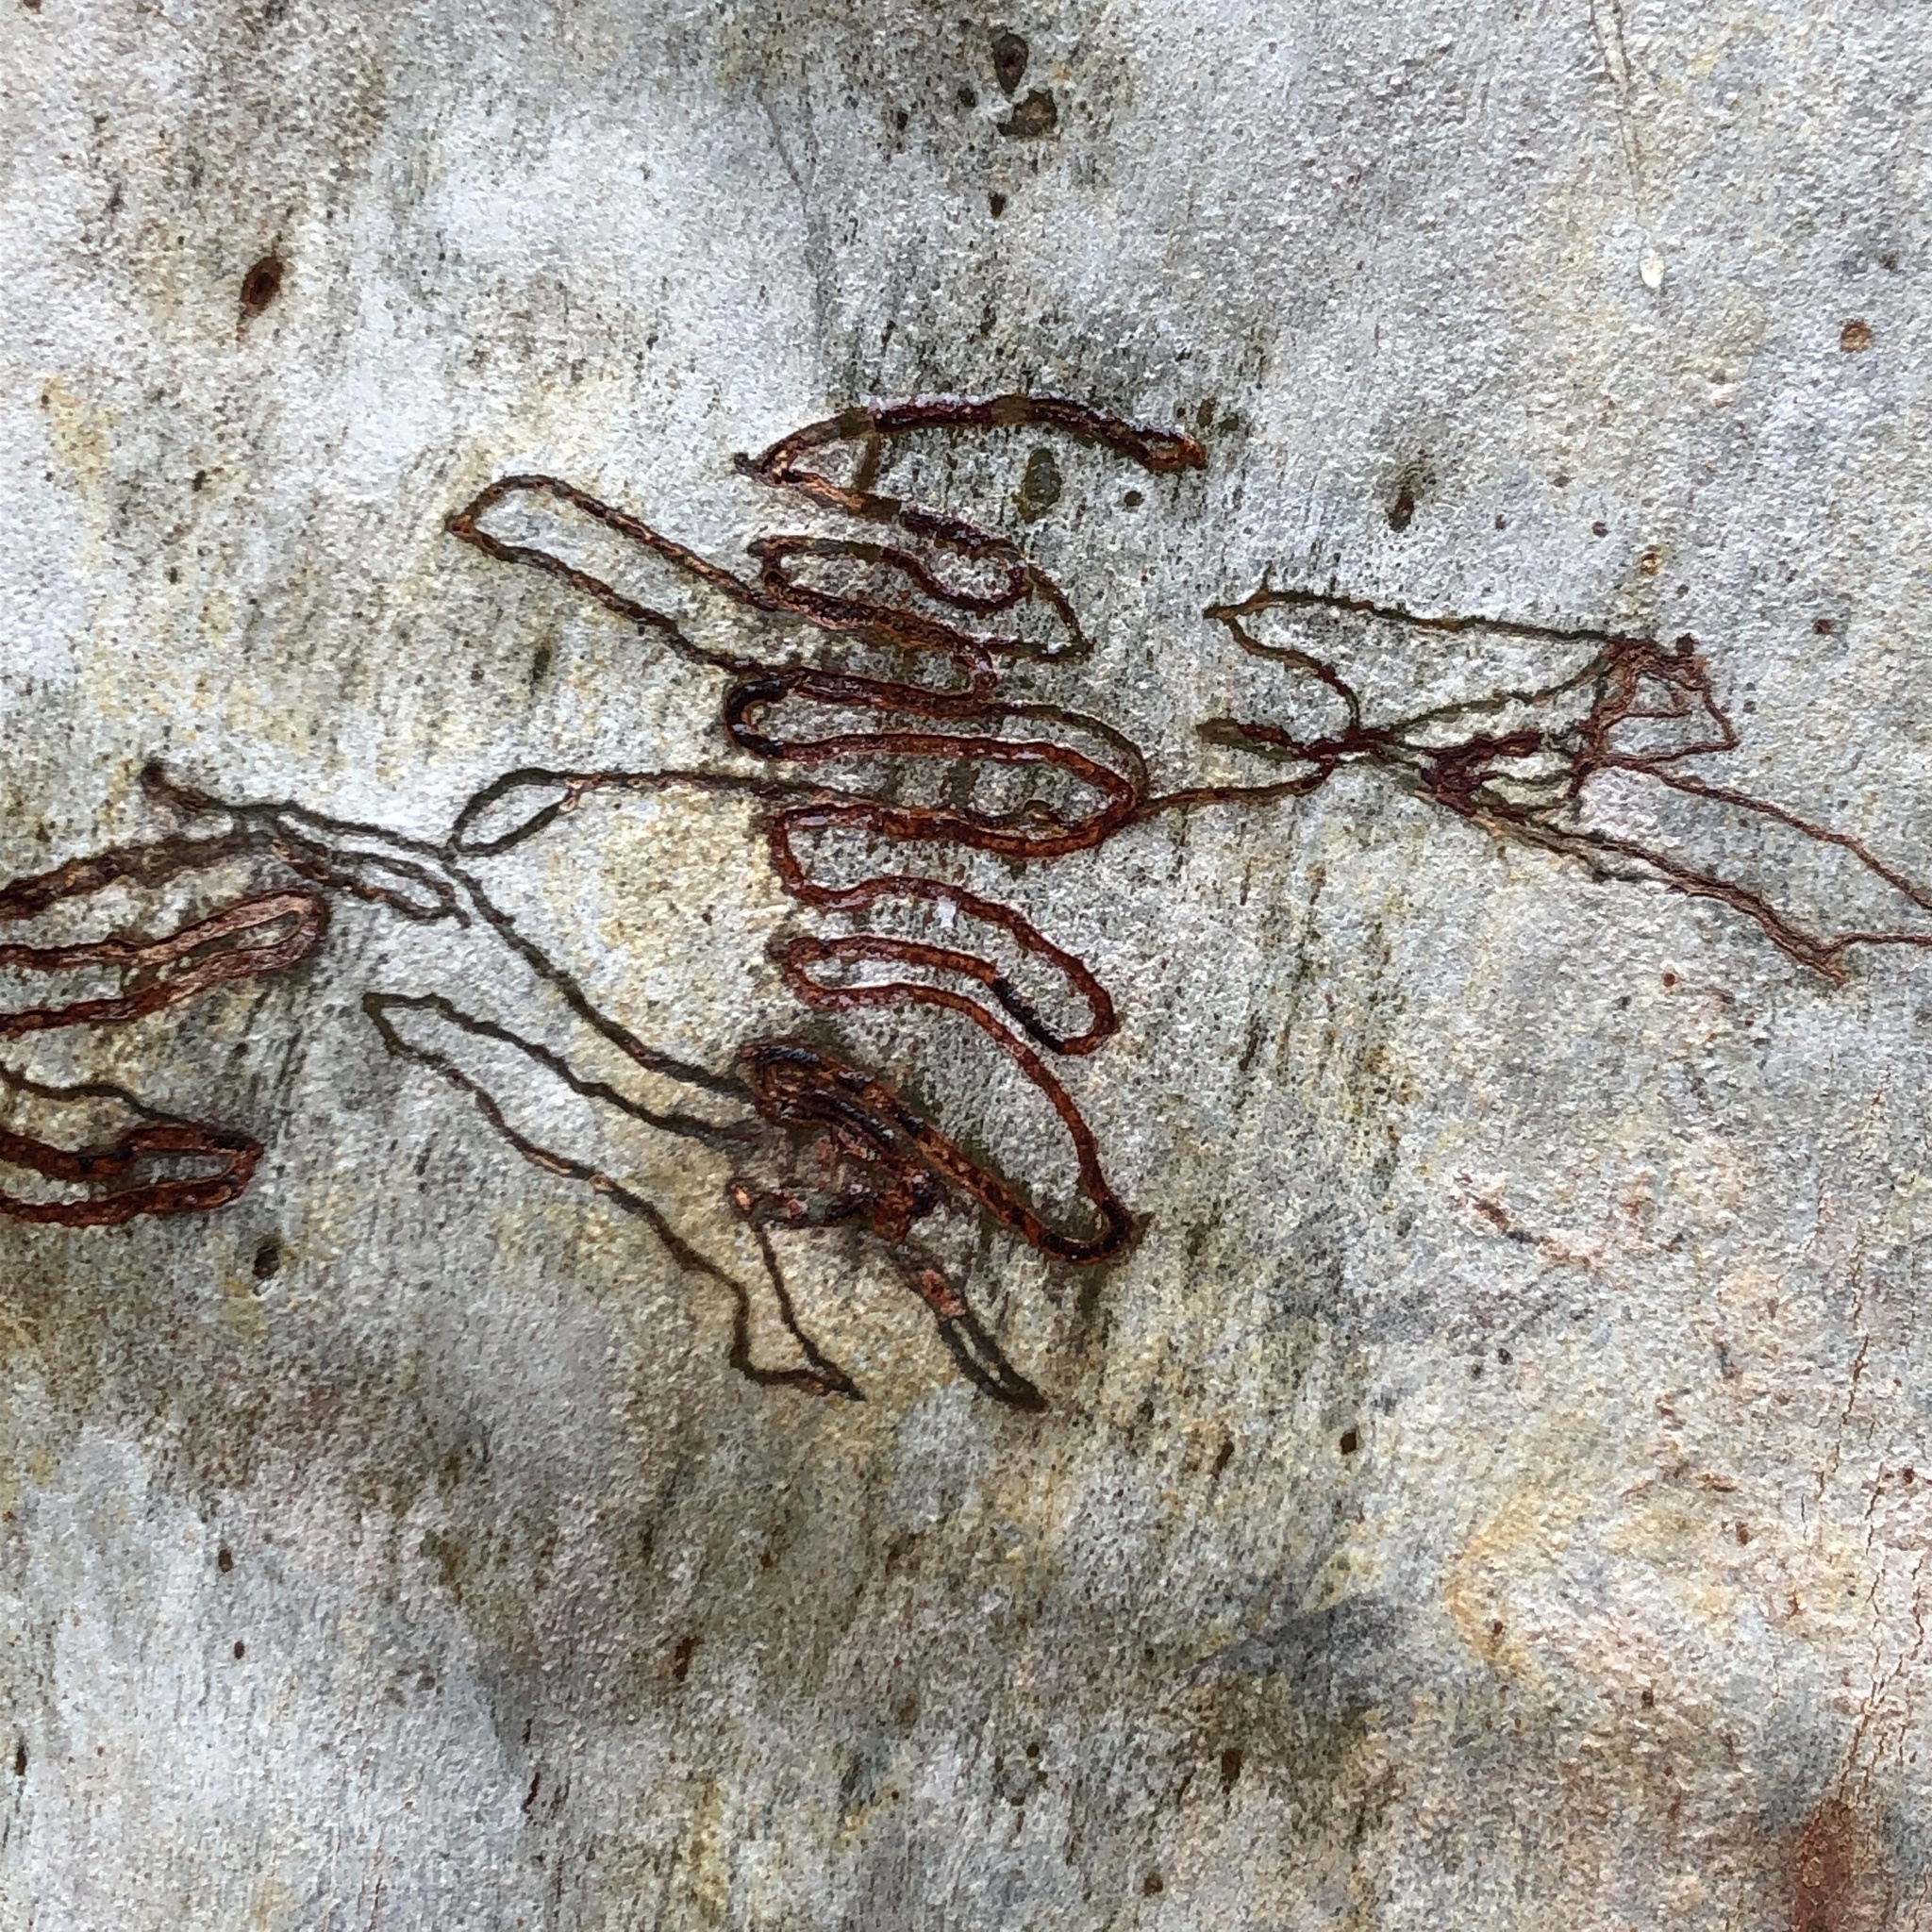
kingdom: Plantae
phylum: Tracheophyta
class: Magnoliopsida
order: Myrtales
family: Myrtaceae
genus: Eucalyptus
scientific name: Eucalyptus racemosa
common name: Scribbly gum
